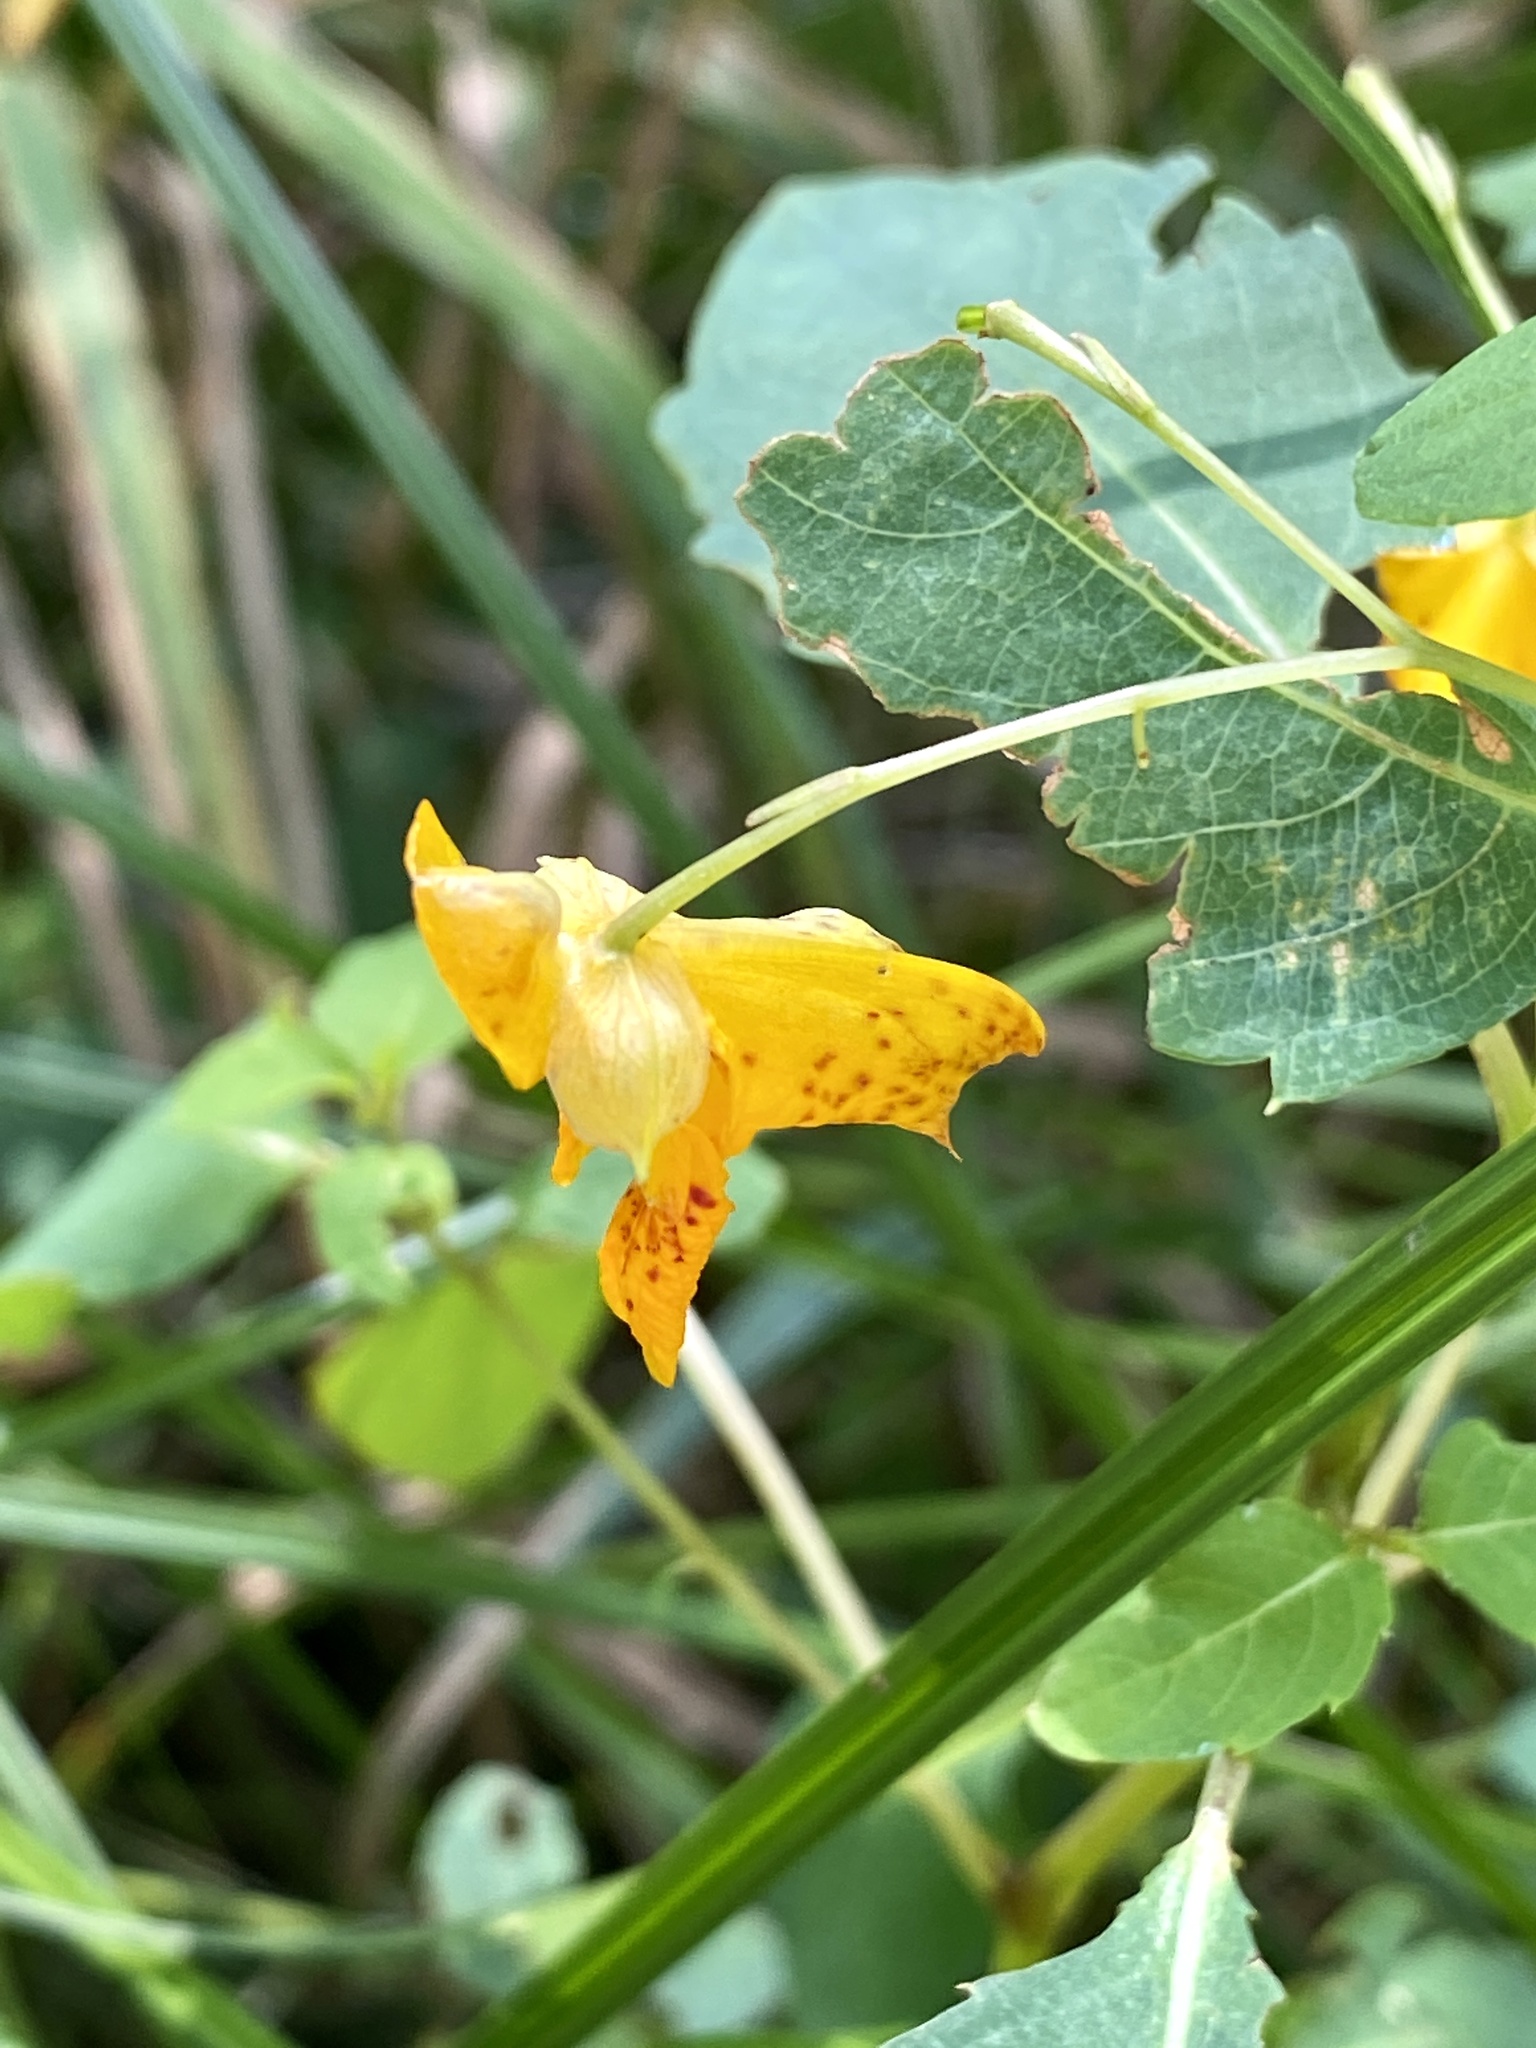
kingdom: Plantae
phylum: Tracheophyta
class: Magnoliopsida
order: Ericales
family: Balsaminaceae
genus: Impatiens
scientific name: Impatiens capensis
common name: Orange balsam
